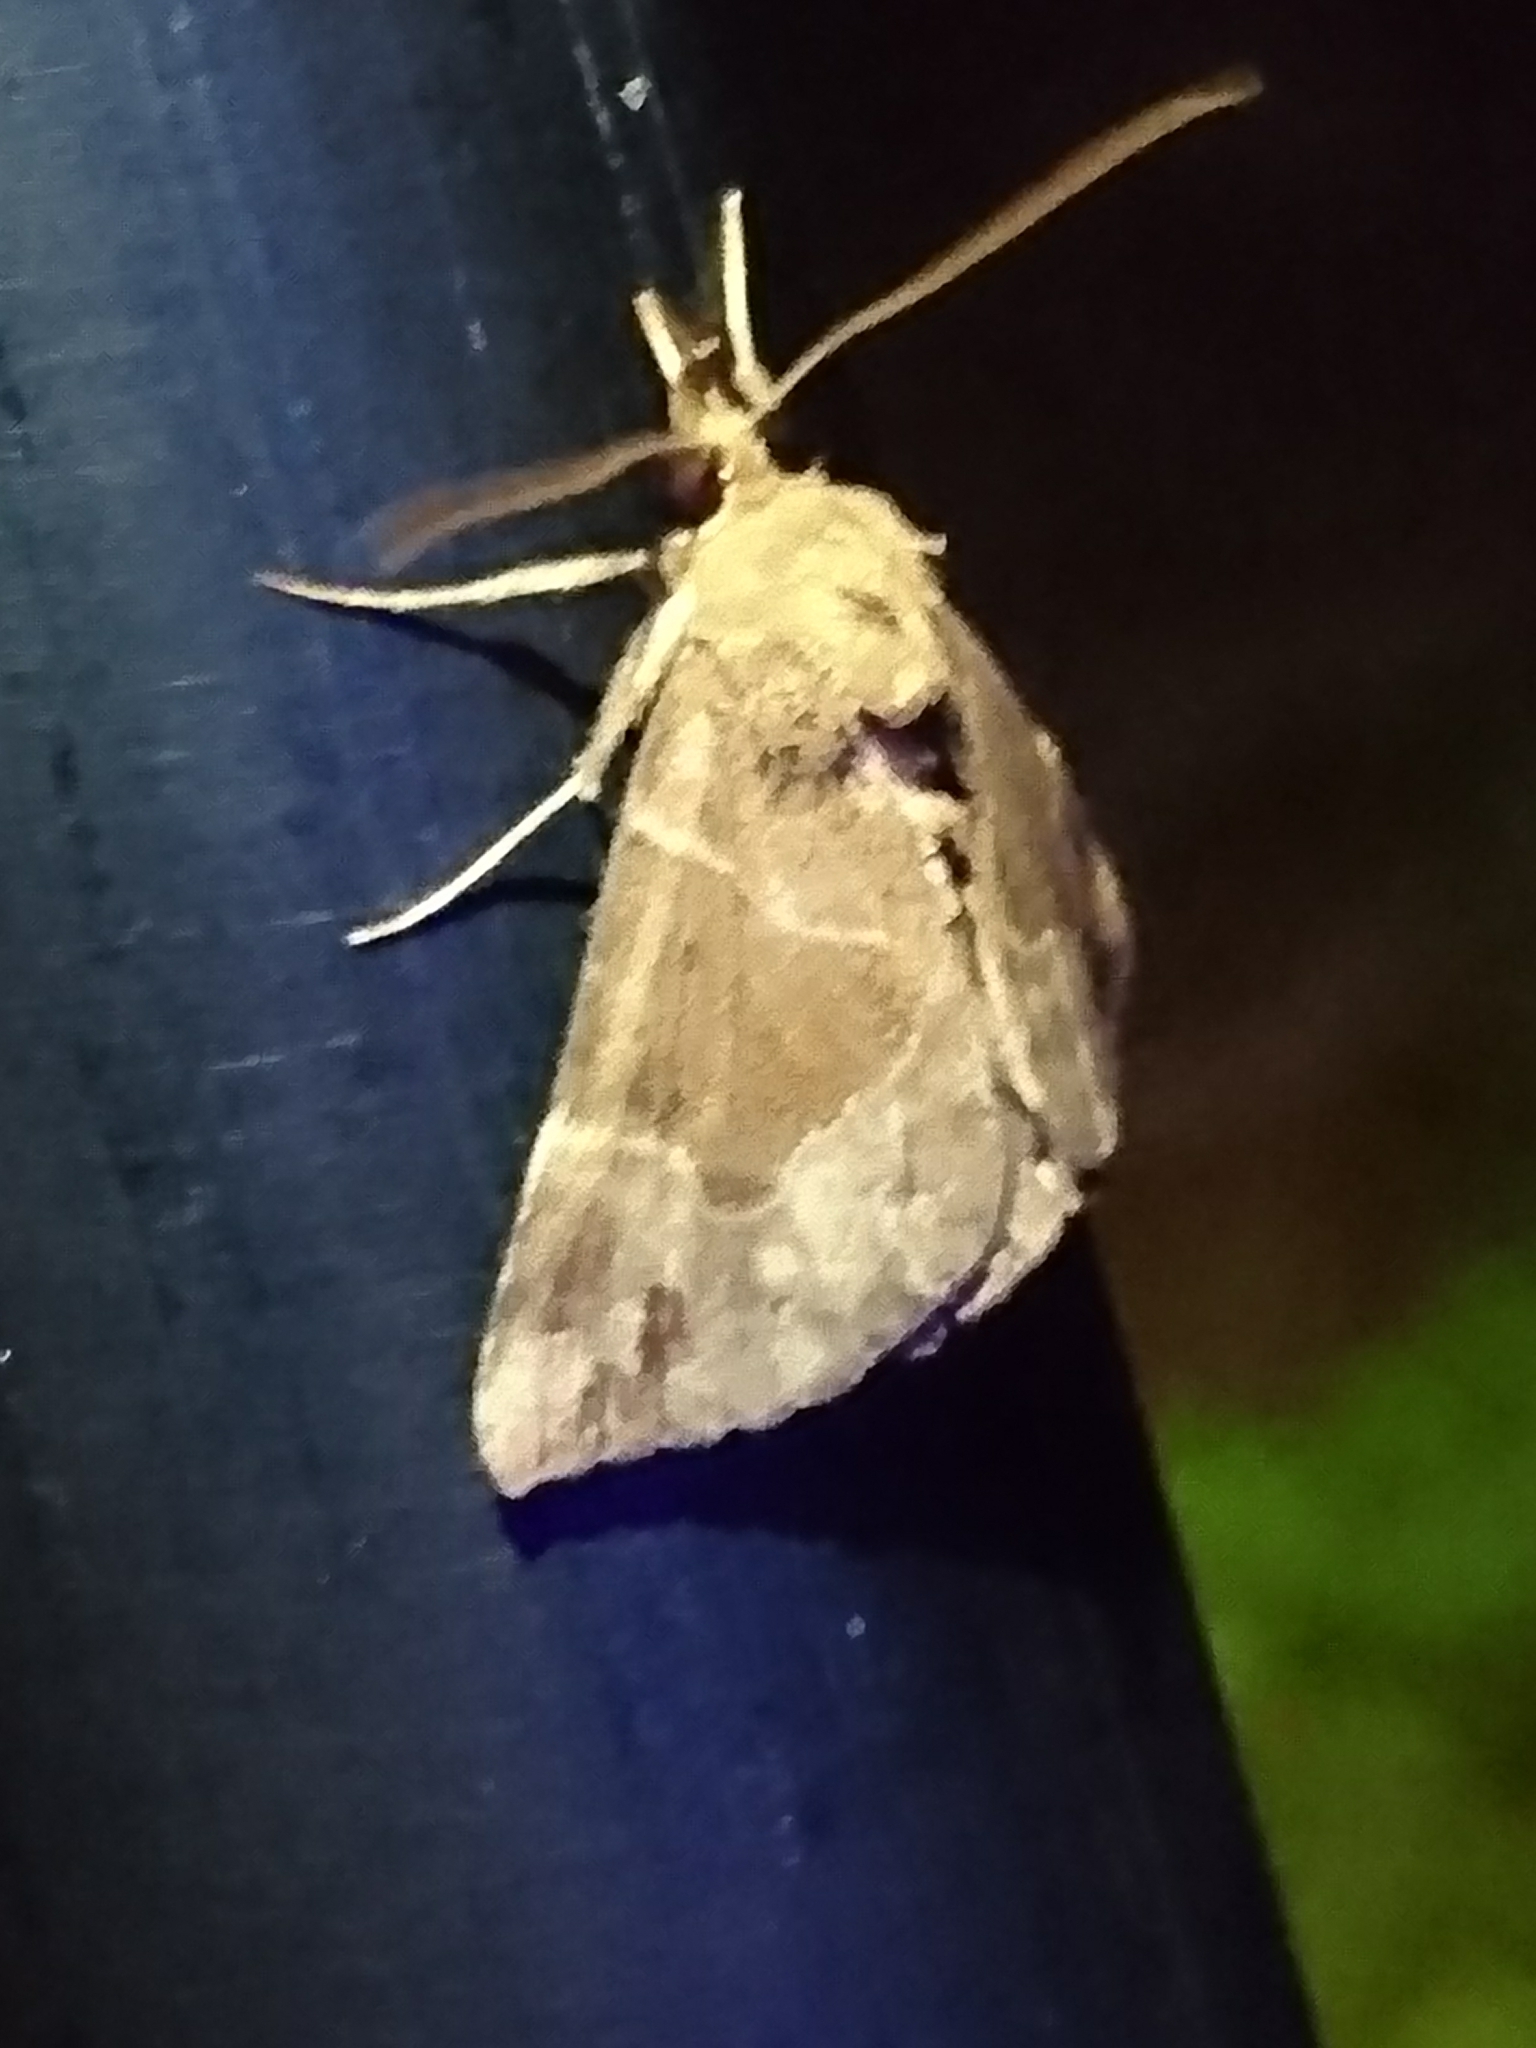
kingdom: Animalia
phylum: Arthropoda
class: Insecta
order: Lepidoptera
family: Erebidae
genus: Hypena
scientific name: Hypena manalis
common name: Flowing-line bomolocha moth
